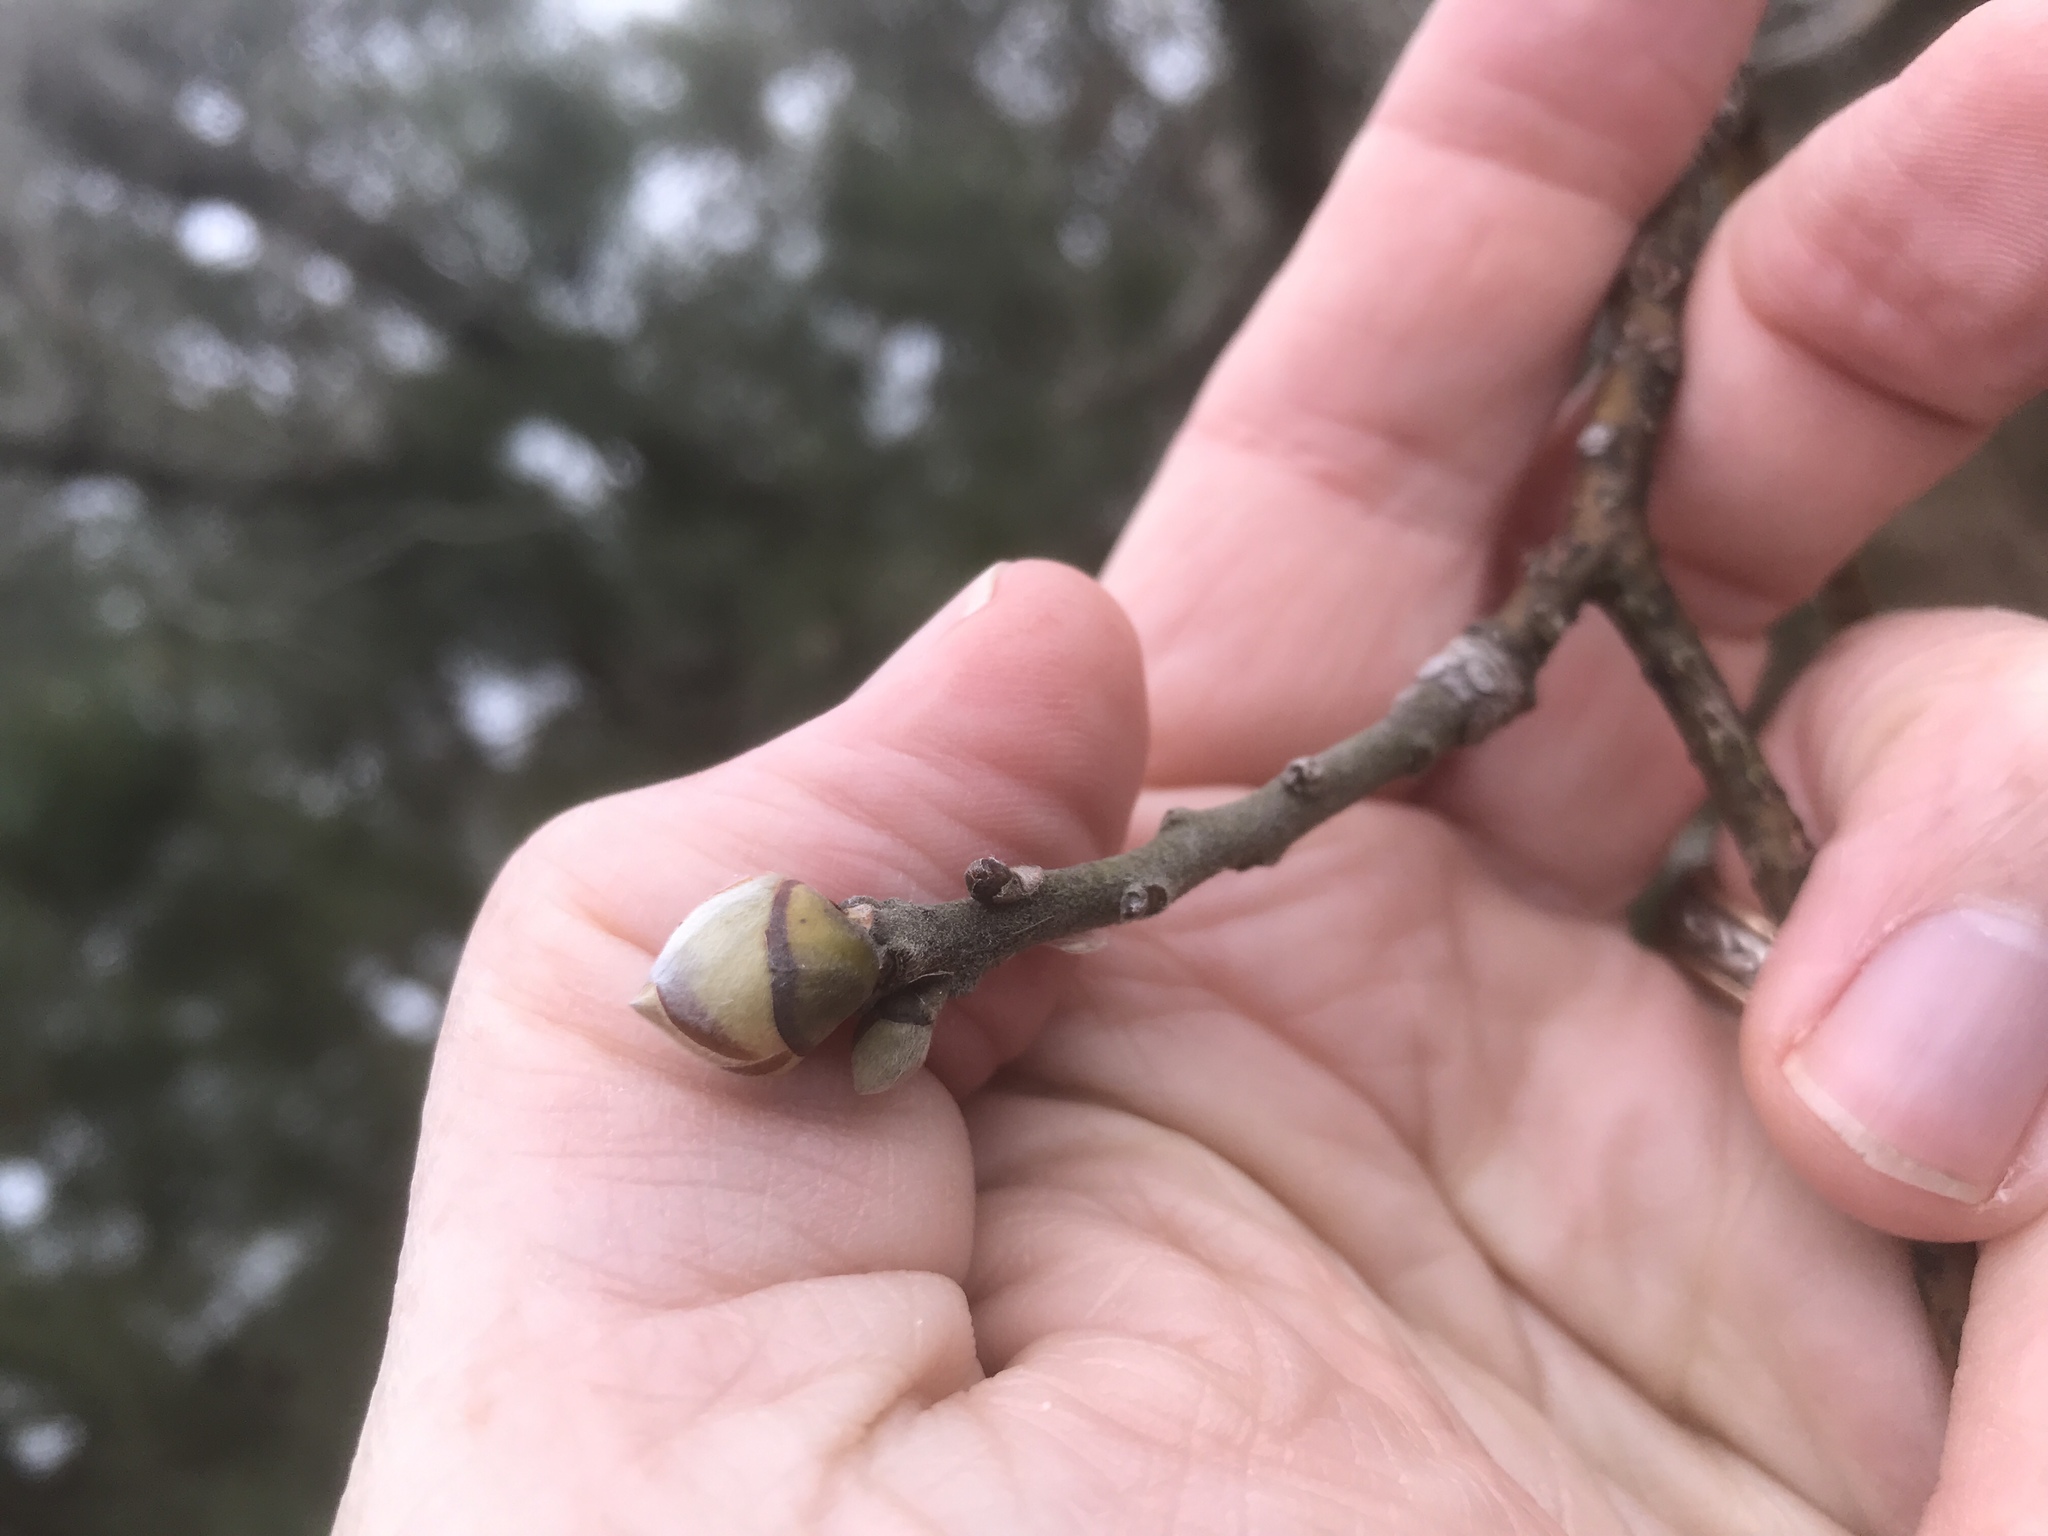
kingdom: Plantae
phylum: Tracheophyta
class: Magnoliopsida
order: Laurales
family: Lauraceae
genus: Sassafras
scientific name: Sassafras albidum
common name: Sassafras
